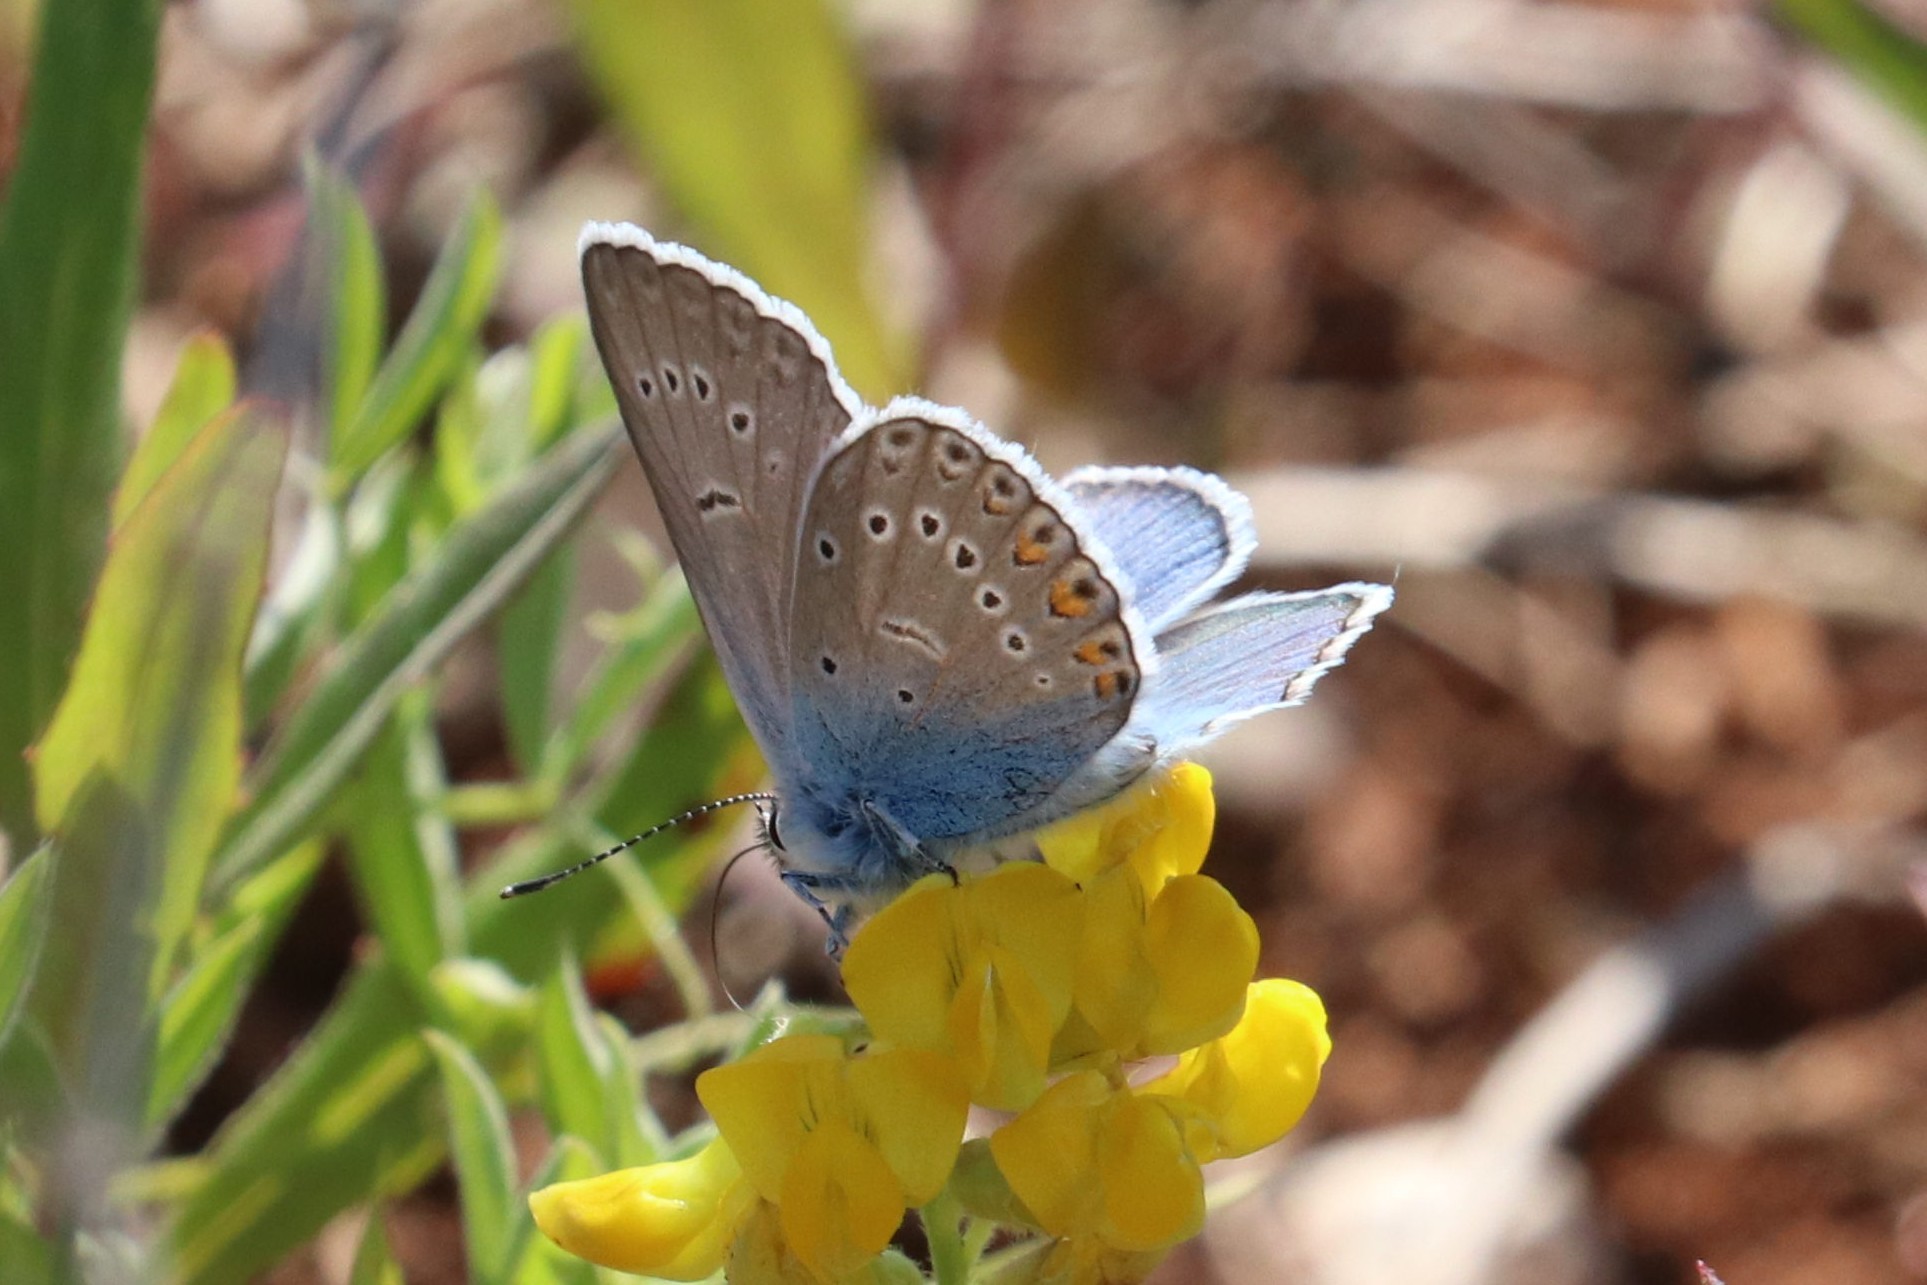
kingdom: Animalia
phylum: Arthropoda
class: Insecta
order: Lepidoptera
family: Lycaenidae
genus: Plebejus
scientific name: Plebejus amanda
